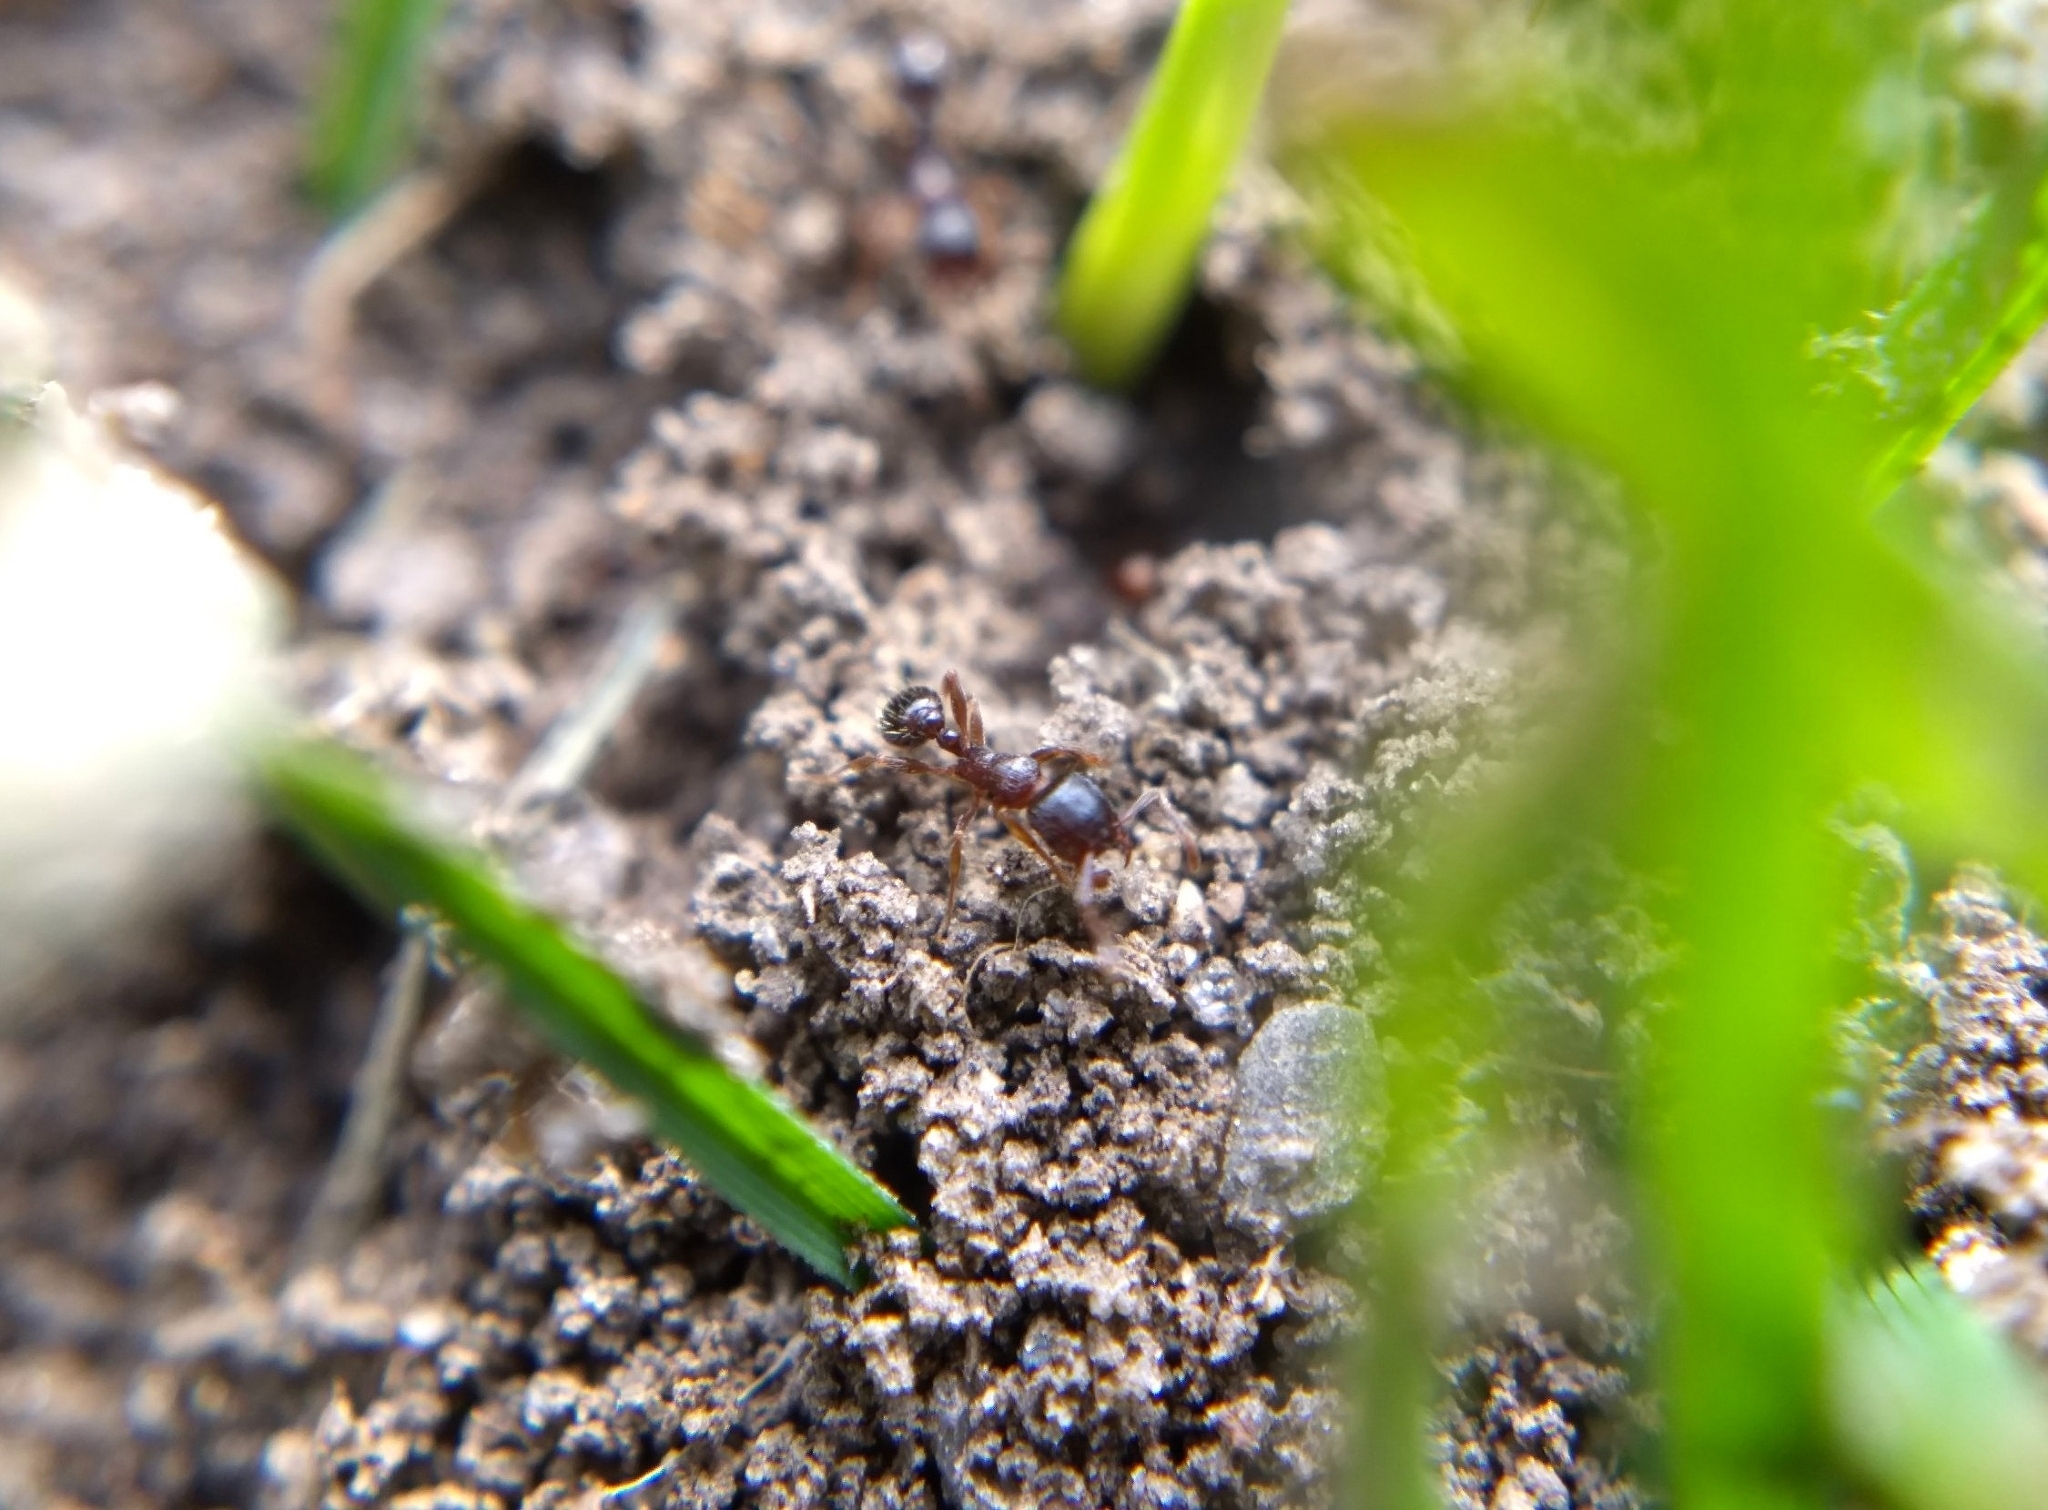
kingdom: Animalia
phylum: Arthropoda
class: Insecta
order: Hymenoptera
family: Formicidae
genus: Tetramorium
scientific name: Tetramorium immigrans
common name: Pavement ant
